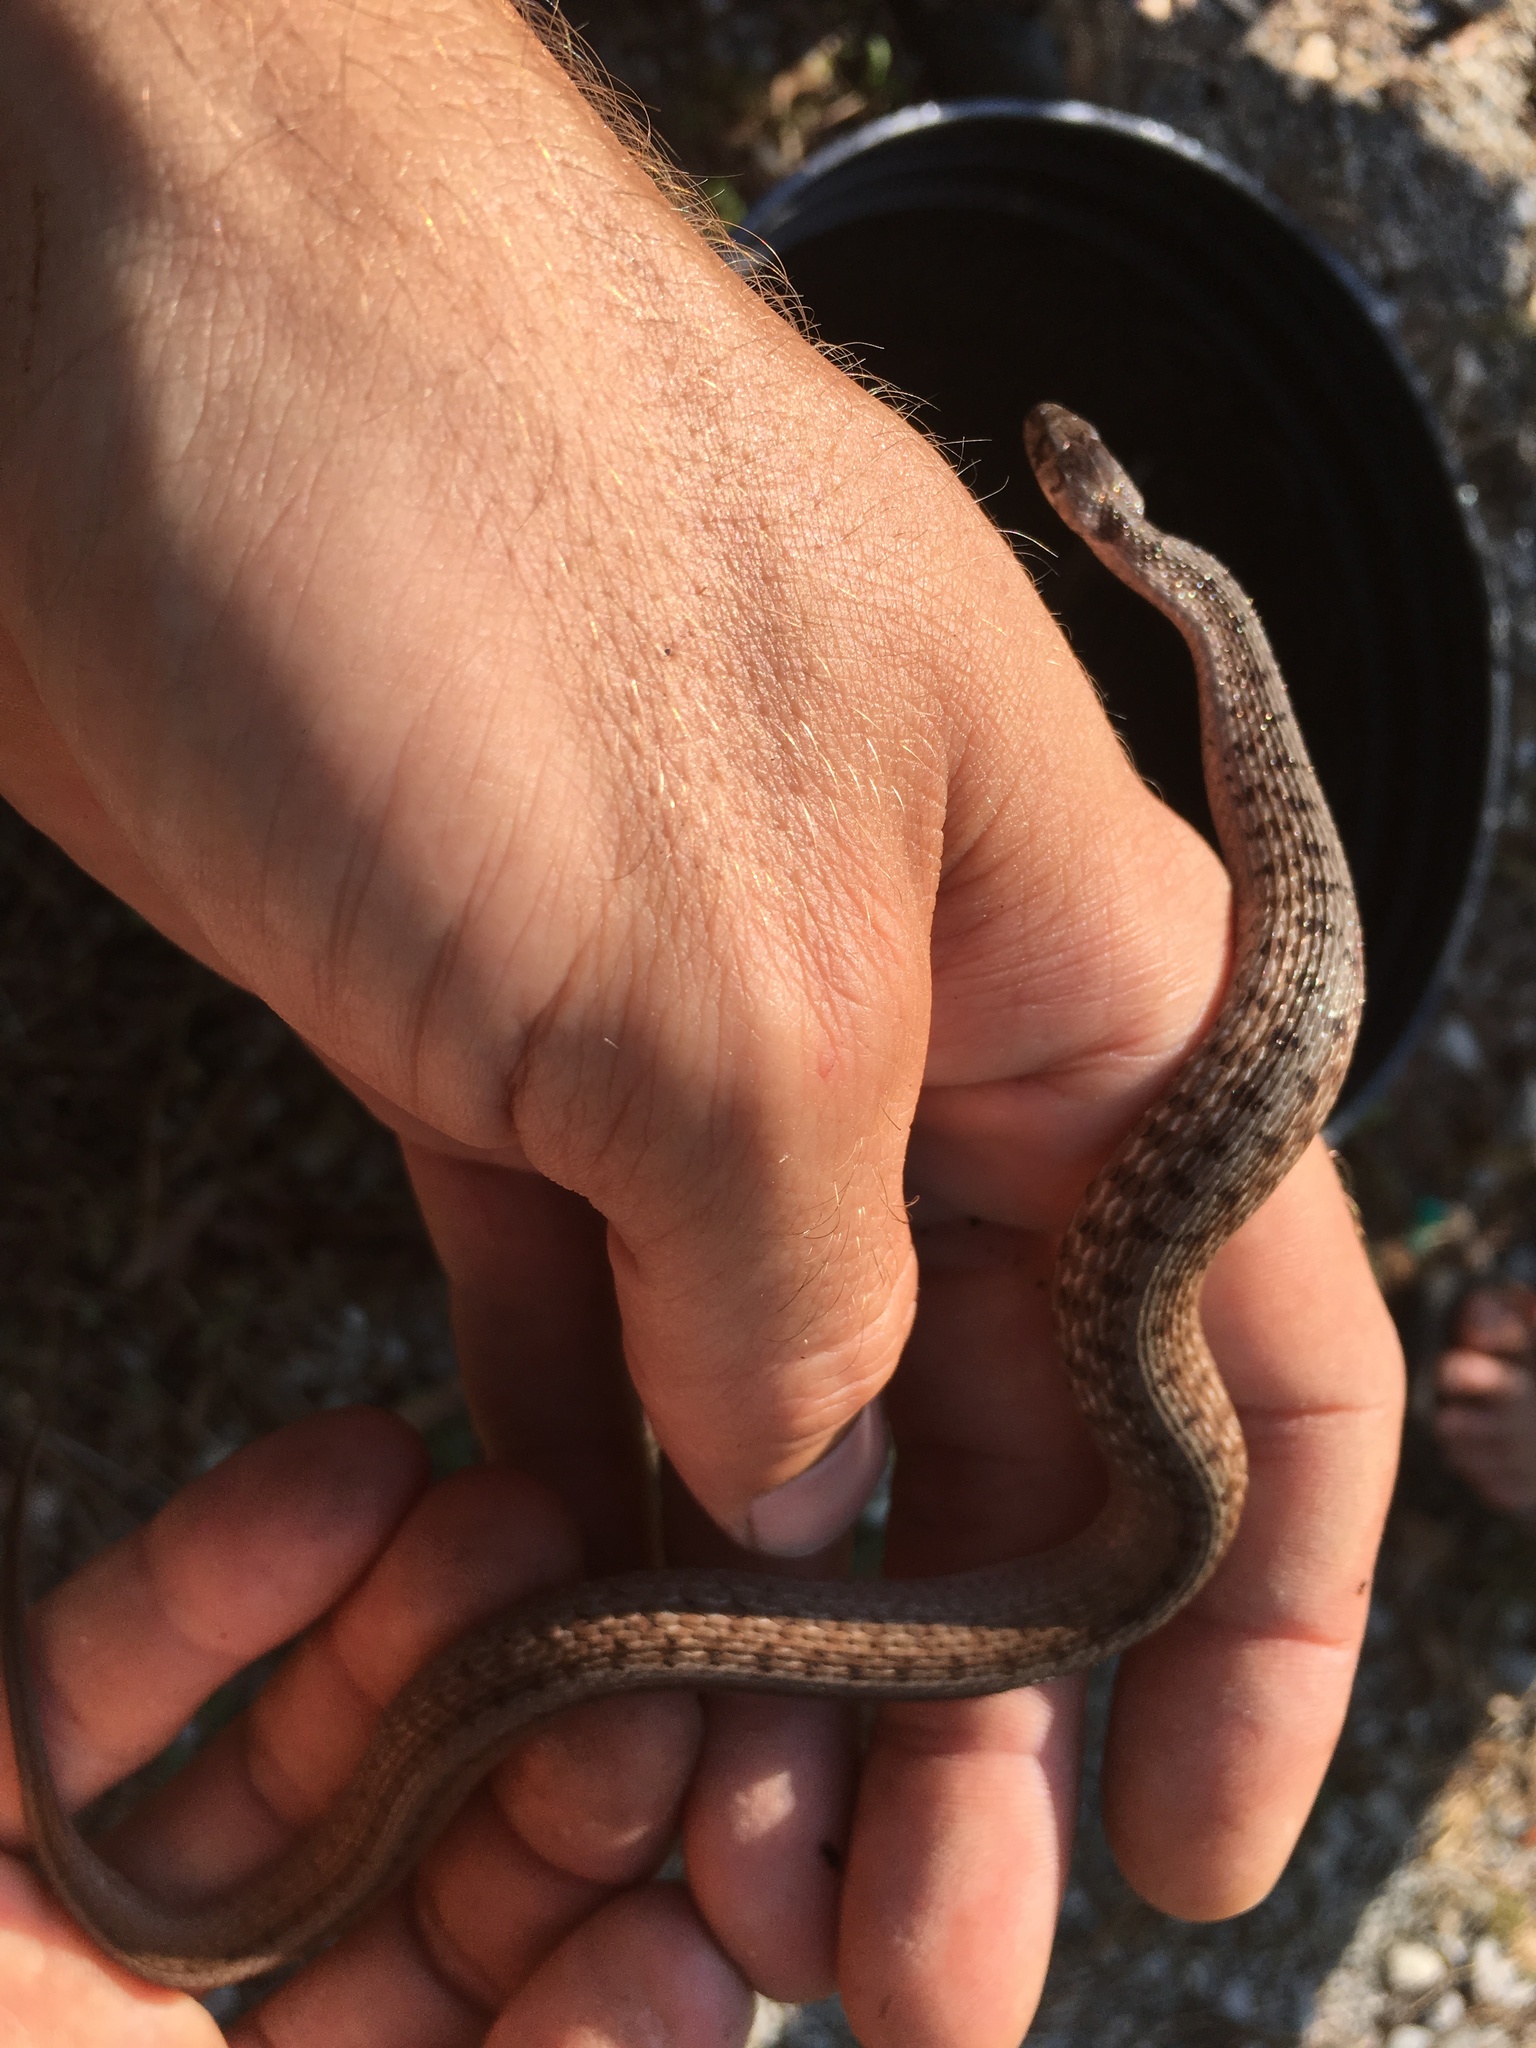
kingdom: Animalia
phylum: Chordata
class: Squamata
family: Colubridae
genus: Storeria
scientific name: Storeria dekayi
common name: (dekay’s) brown snake
